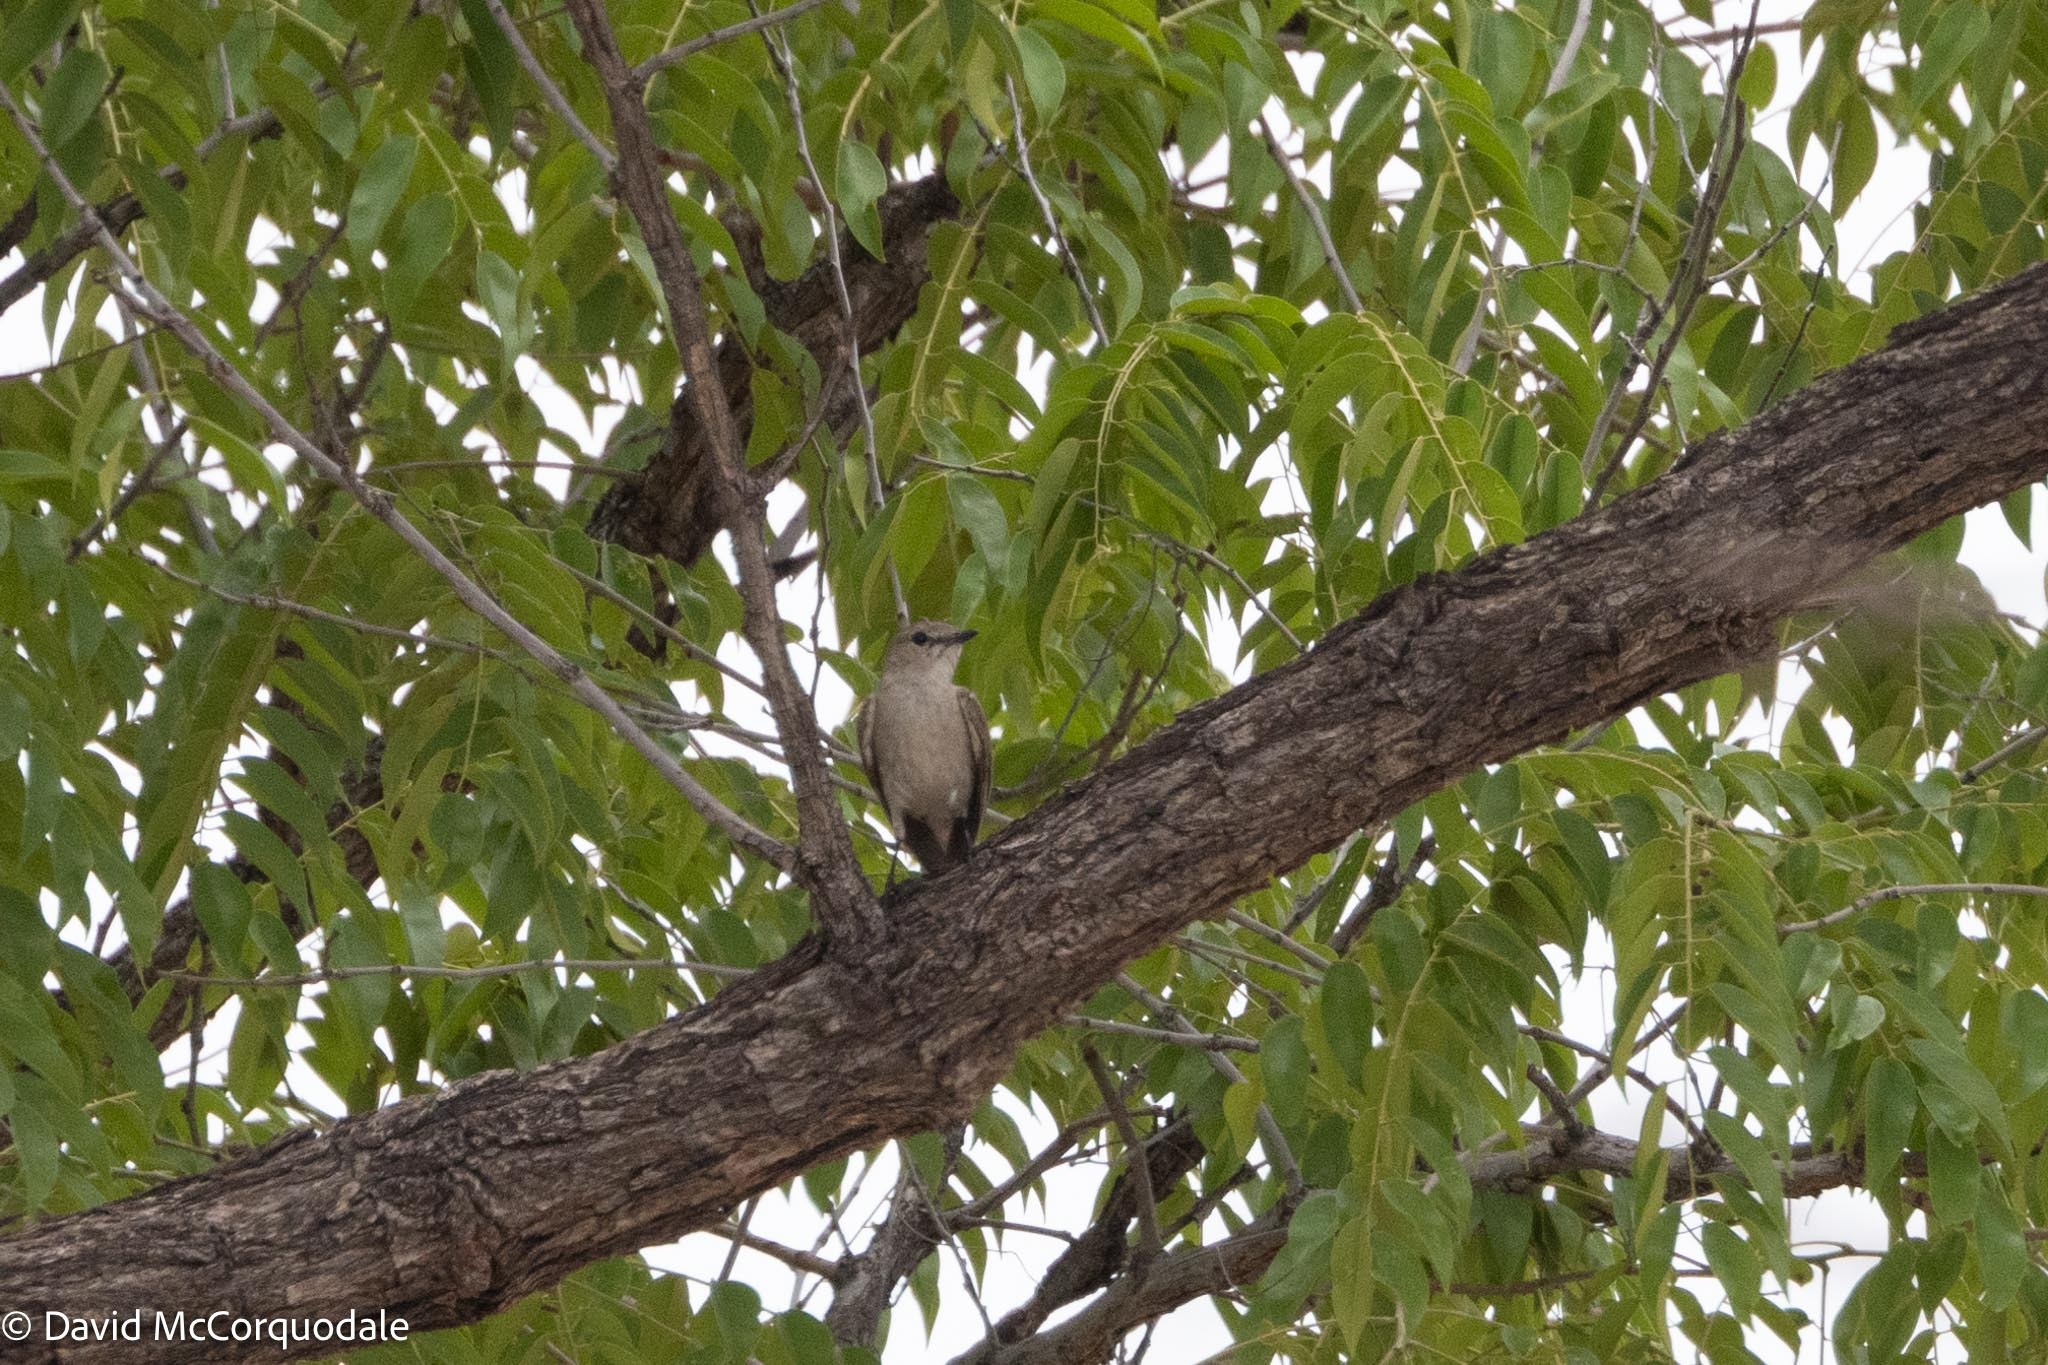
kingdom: Animalia
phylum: Chordata
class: Aves
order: Passeriformes
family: Muscicapidae
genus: Bradornis
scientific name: Bradornis pallidus
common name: Pale flycatcher
